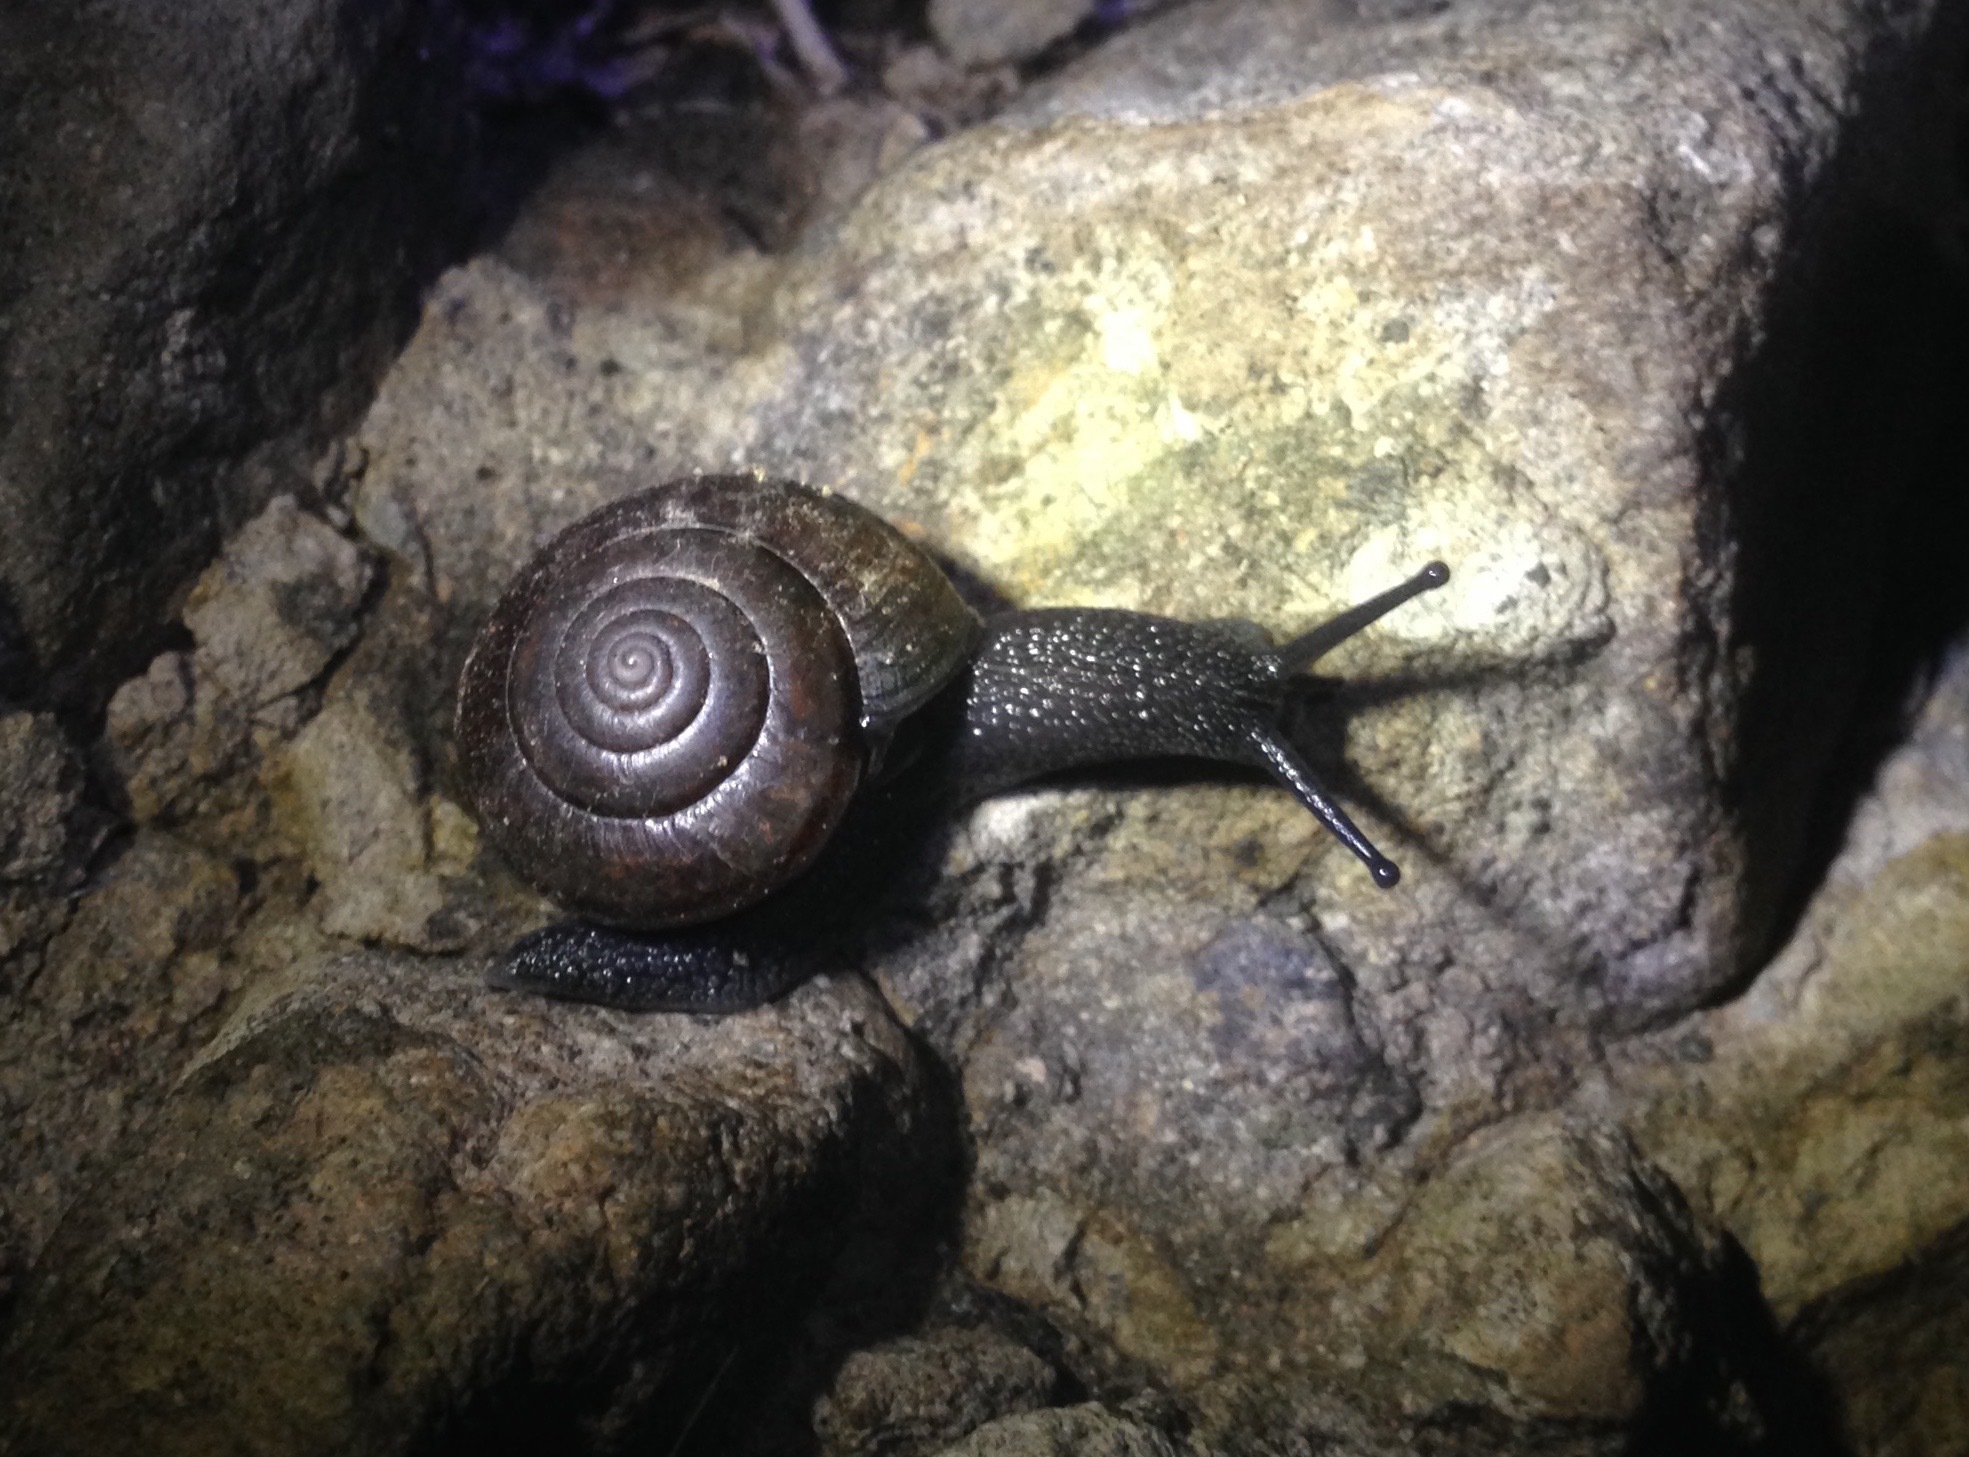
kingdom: Animalia
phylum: Mollusca
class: Gastropoda
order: Stylommatophora
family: Xanthonychidae
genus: Helminthoglypta
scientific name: Helminthoglypta traskii
